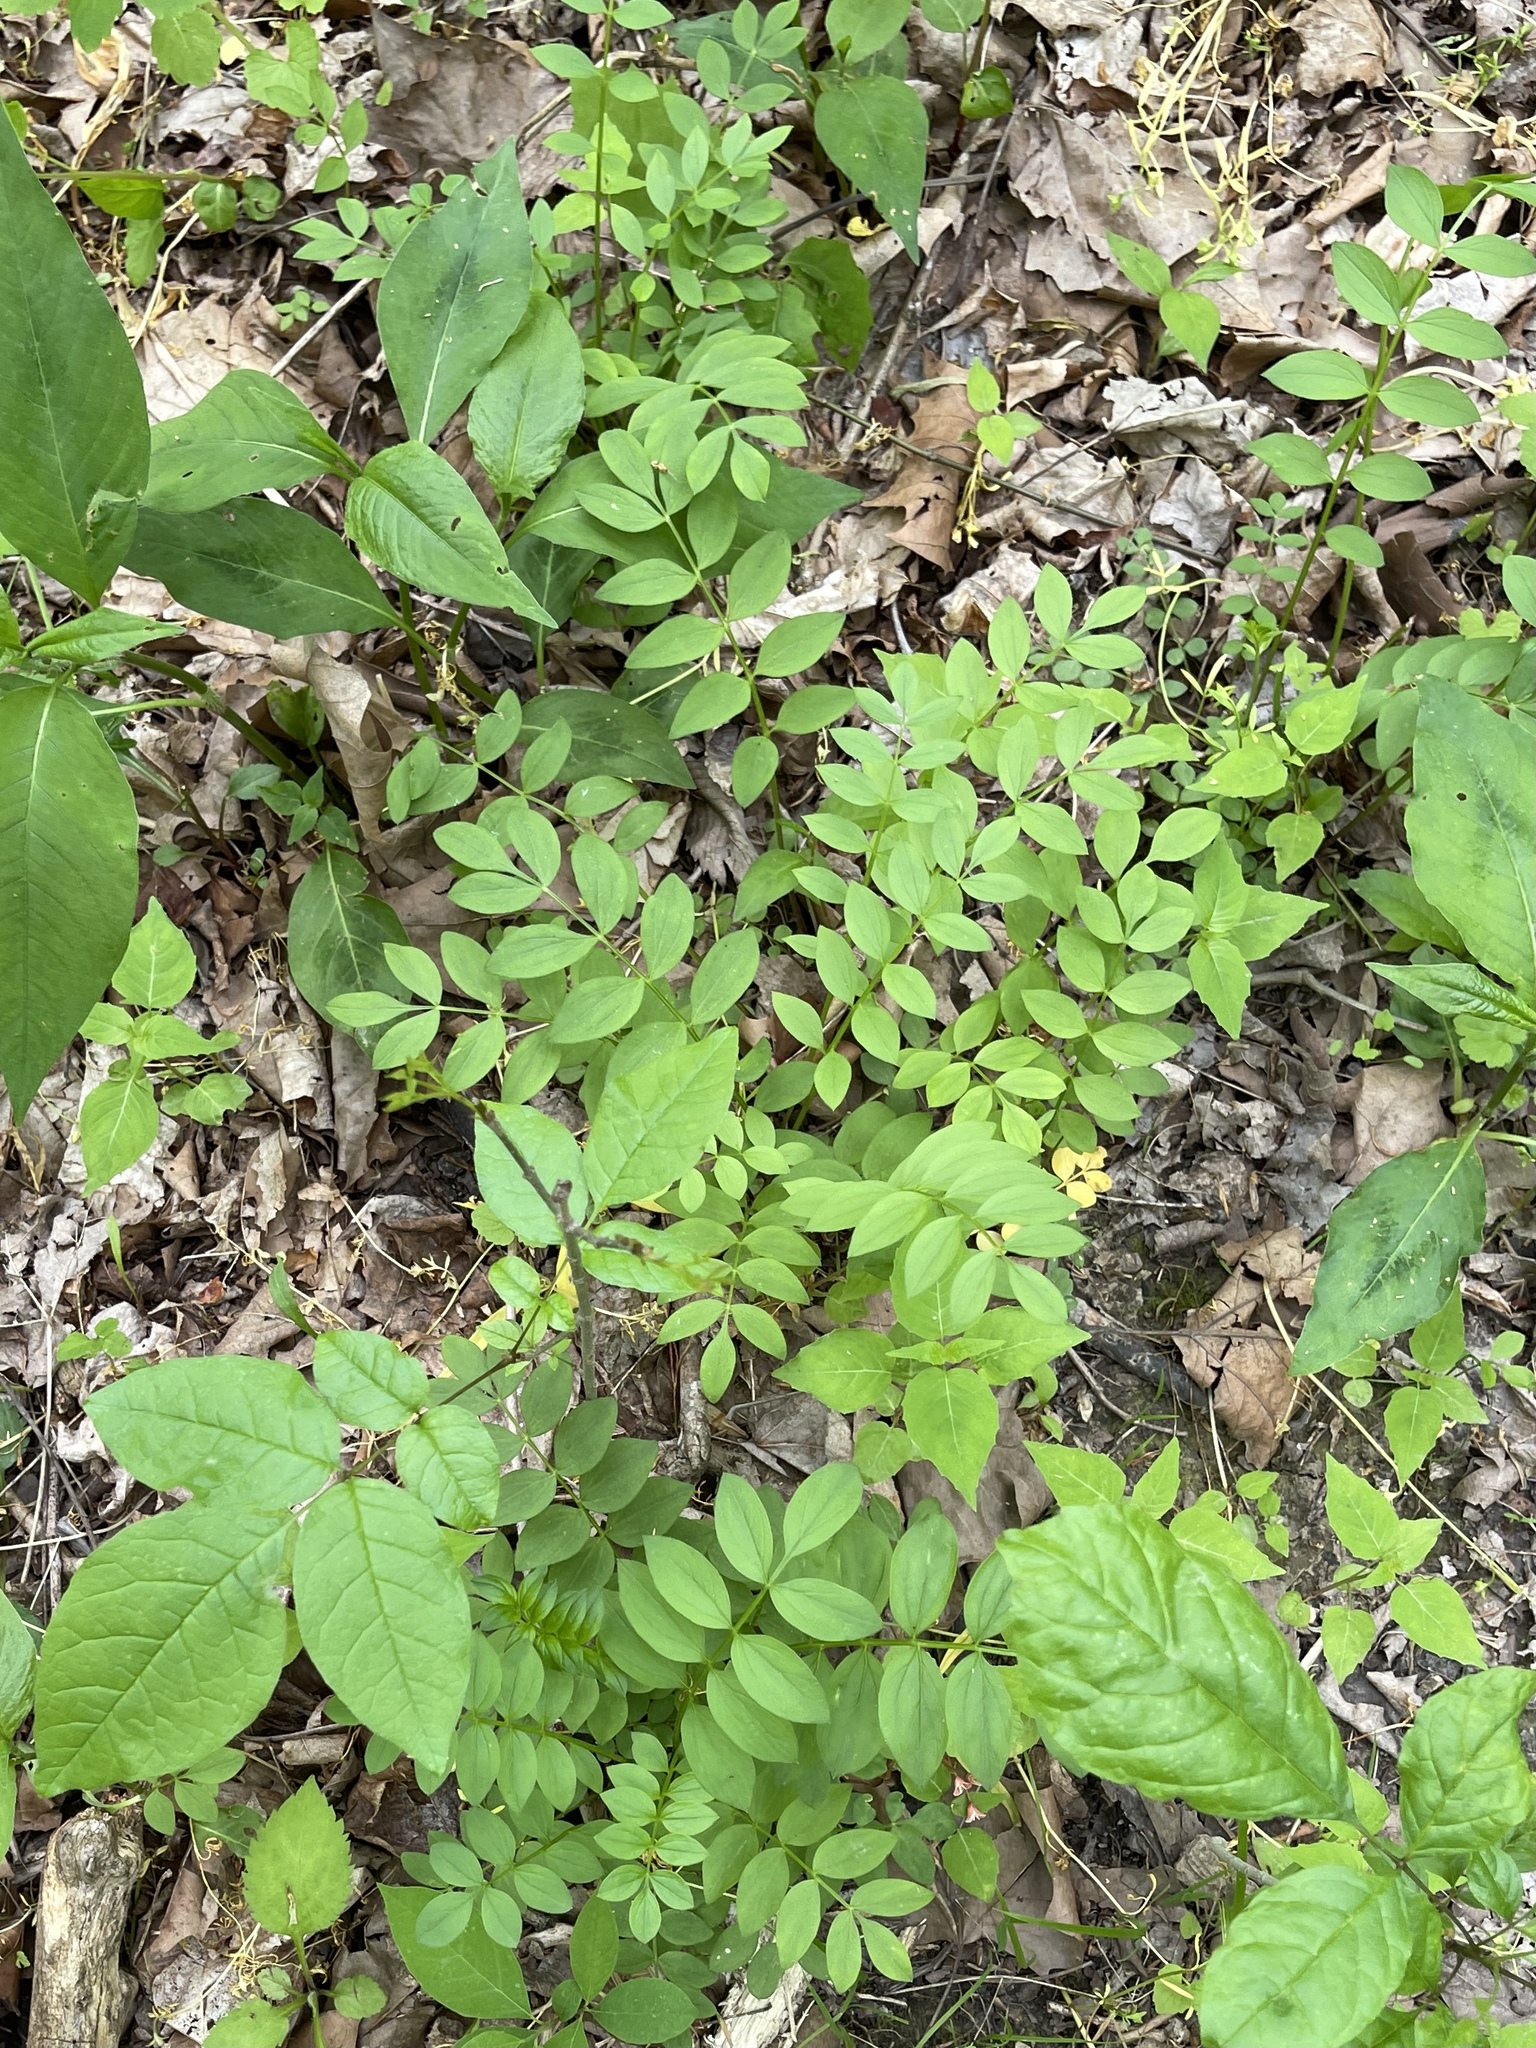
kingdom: Plantae
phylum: Tracheophyta
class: Magnoliopsida
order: Ericales
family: Polemoniaceae
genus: Polemonium
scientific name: Polemonium reptans
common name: Creeping jacob's-ladder
